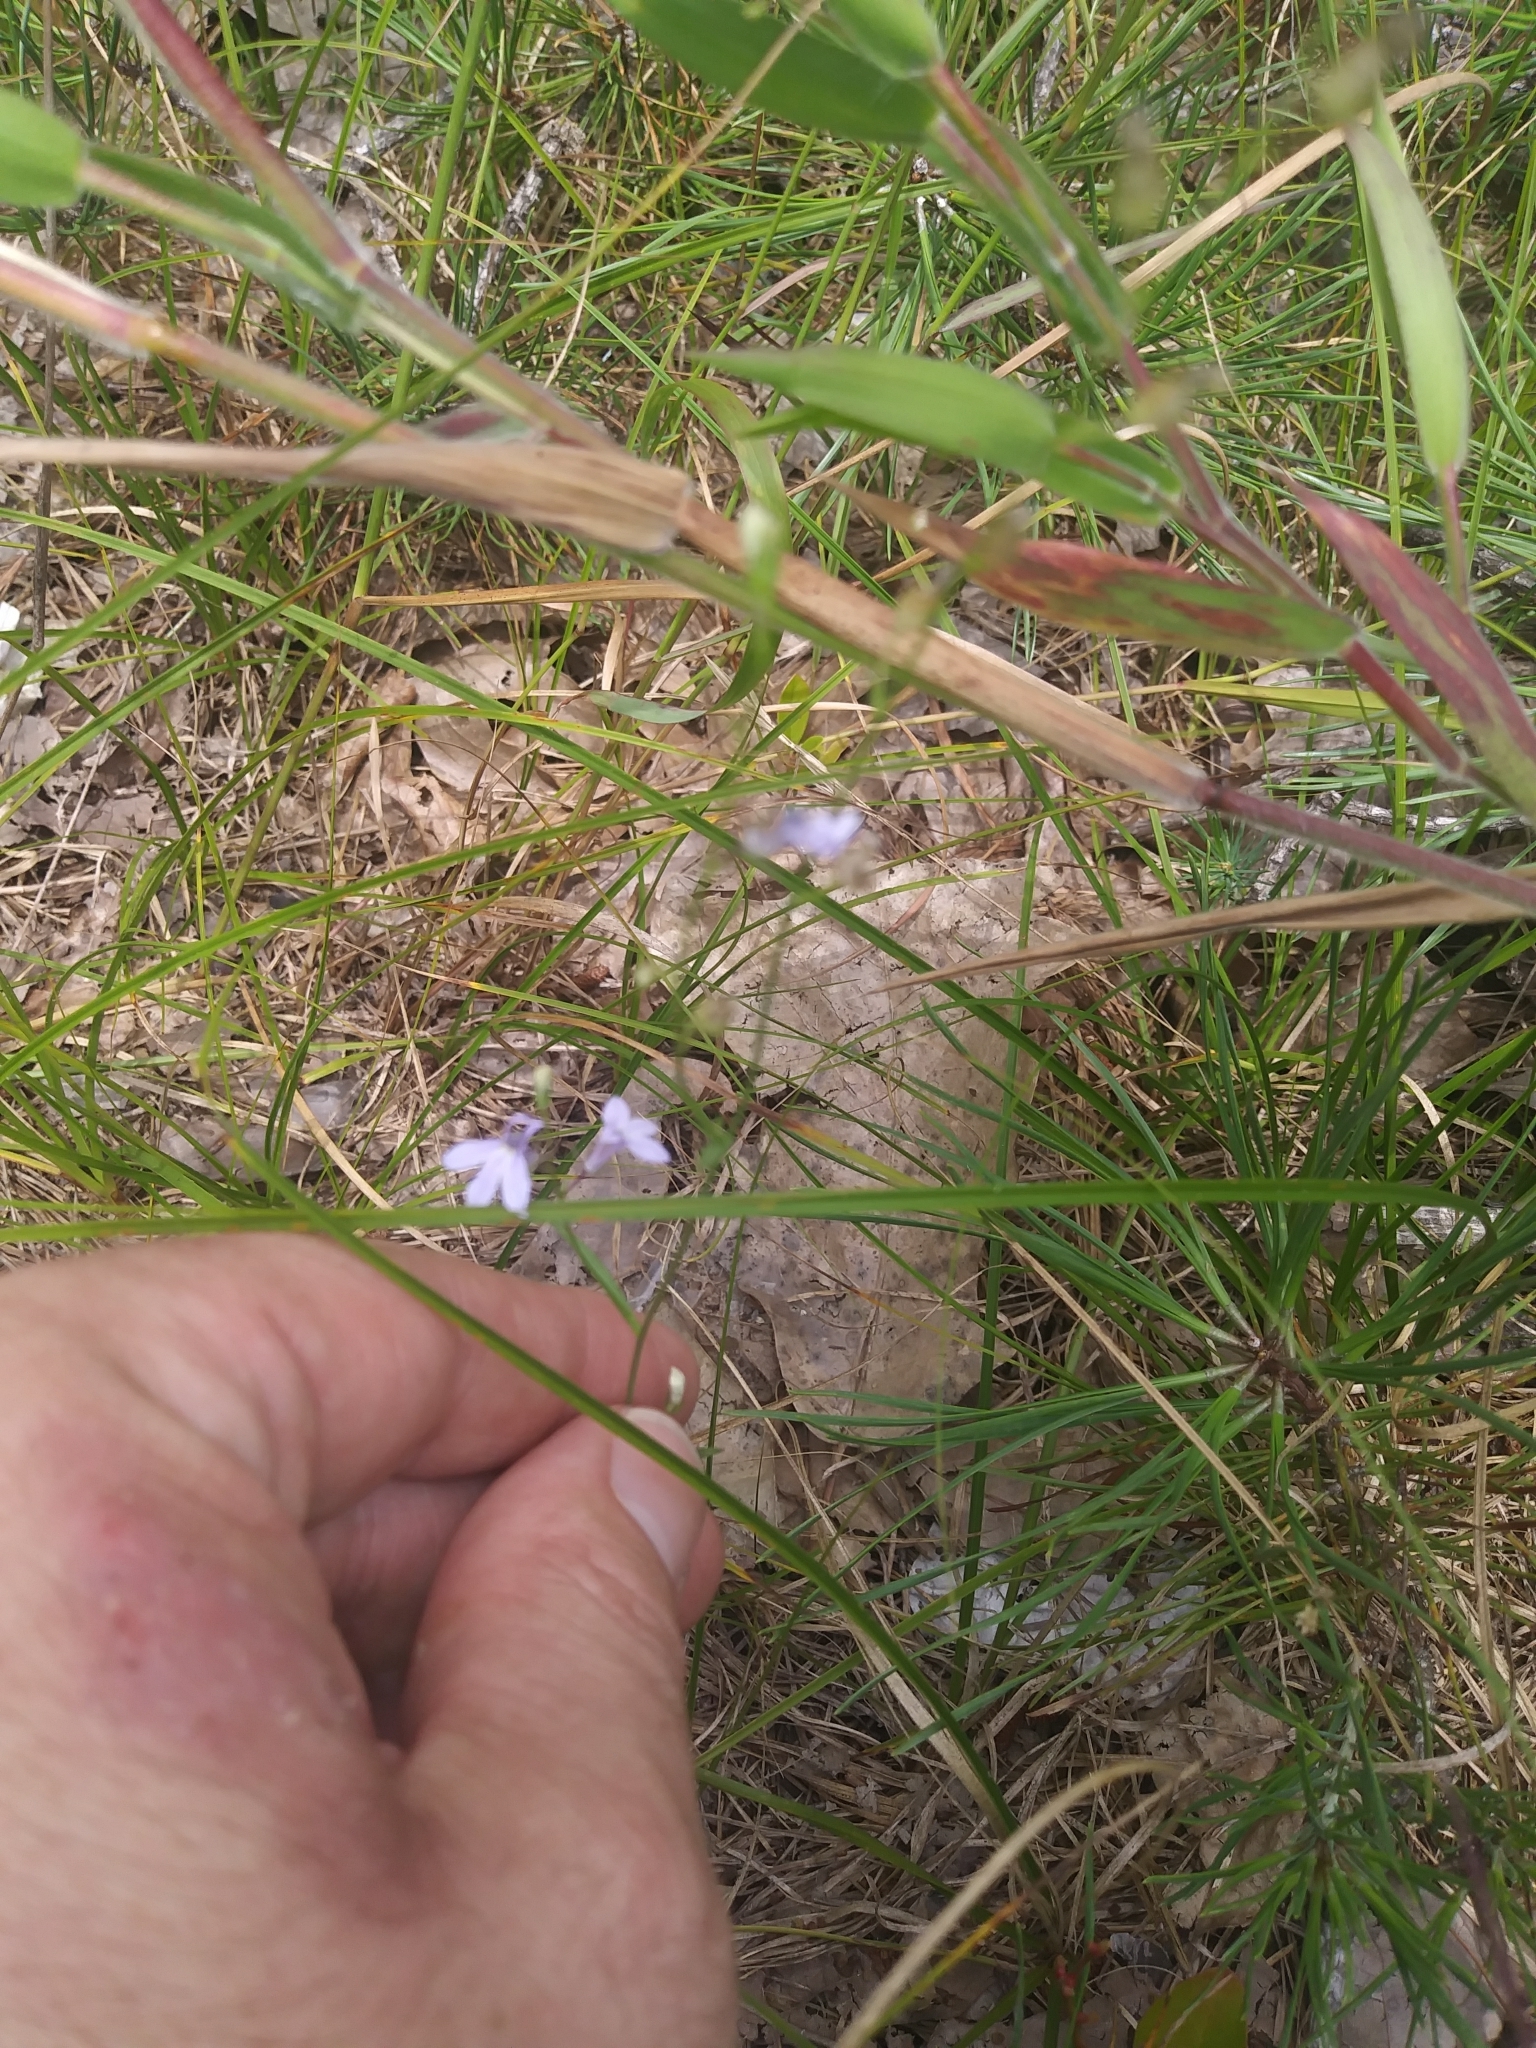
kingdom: Plantae
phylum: Tracheophyta
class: Magnoliopsida
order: Asterales
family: Campanulaceae
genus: Lobelia
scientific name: Lobelia nuttallii
